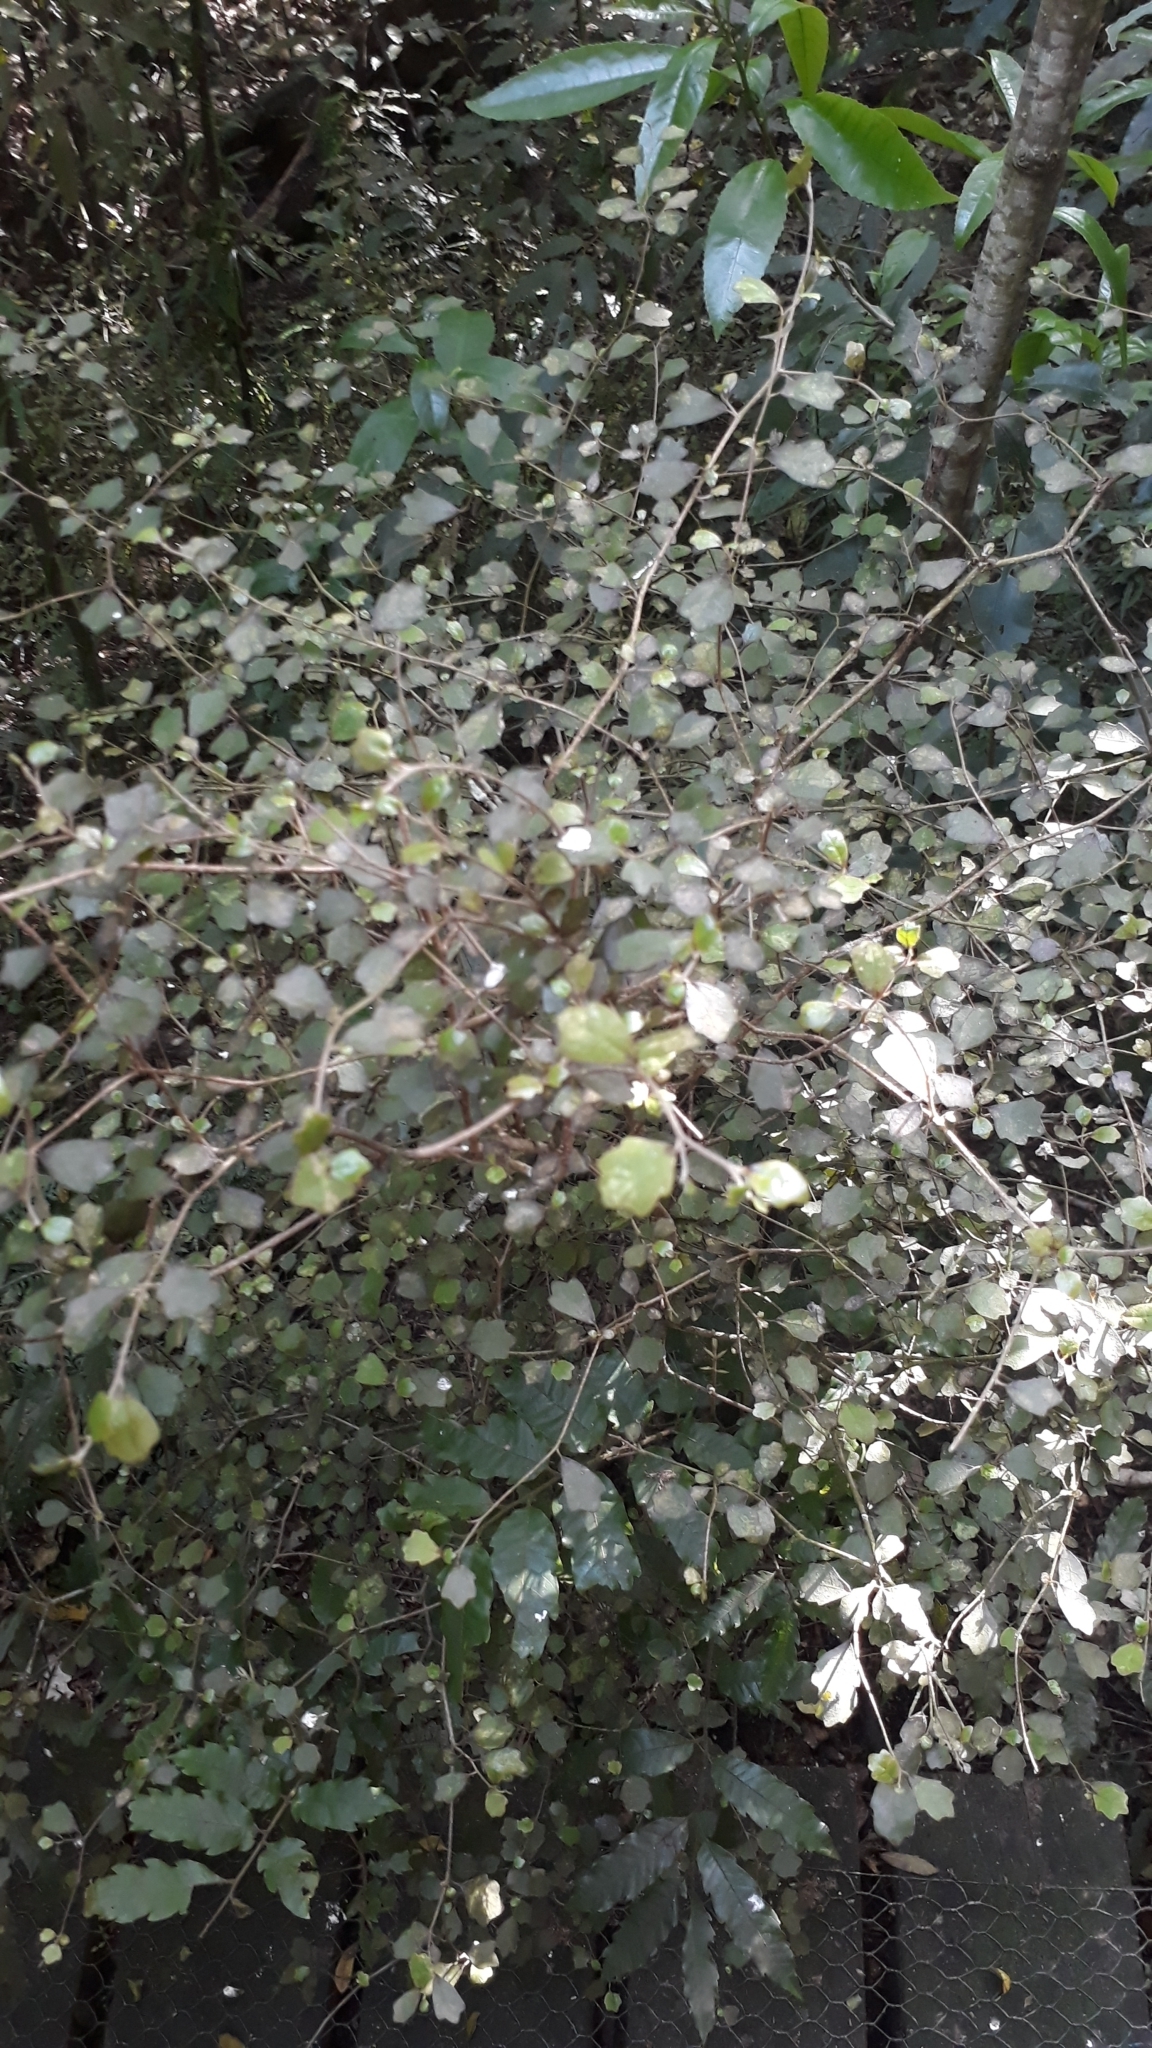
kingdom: Plantae
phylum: Tracheophyta
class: Magnoliopsida
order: Apiales
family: Pennantiaceae
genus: Pennantia
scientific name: Pennantia corymbosa
